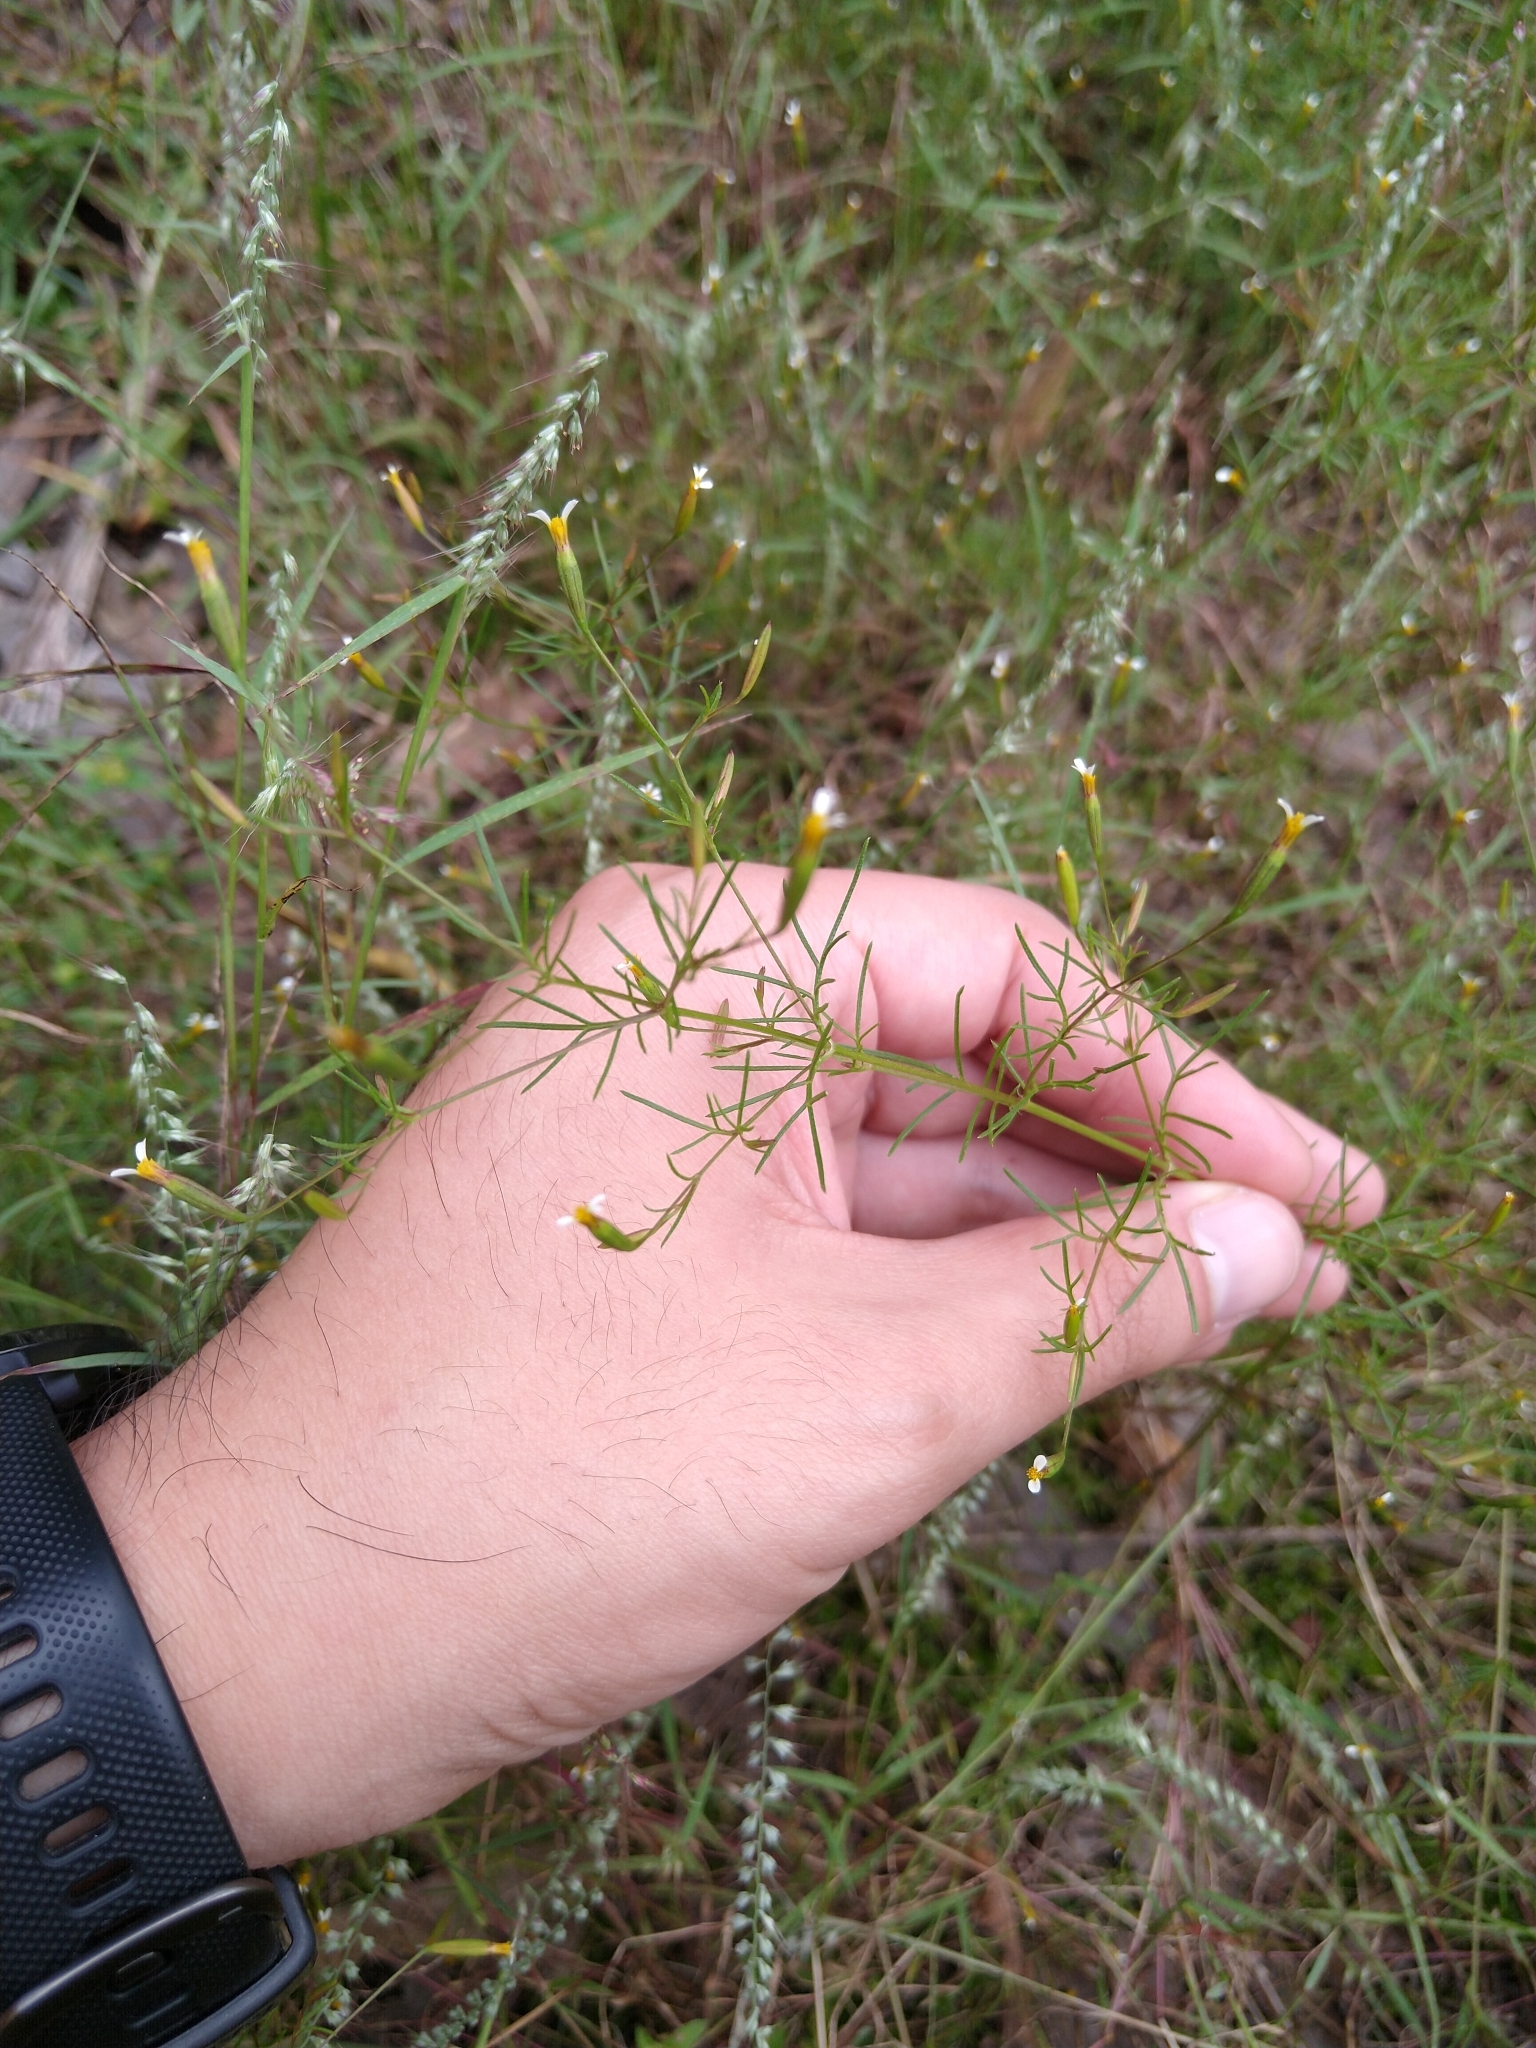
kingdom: Plantae
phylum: Tracheophyta
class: Magnoliopsida
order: Asterales
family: Asteraceae
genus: Tagetes
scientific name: Tagetes micrantha
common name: Licorice marigold
